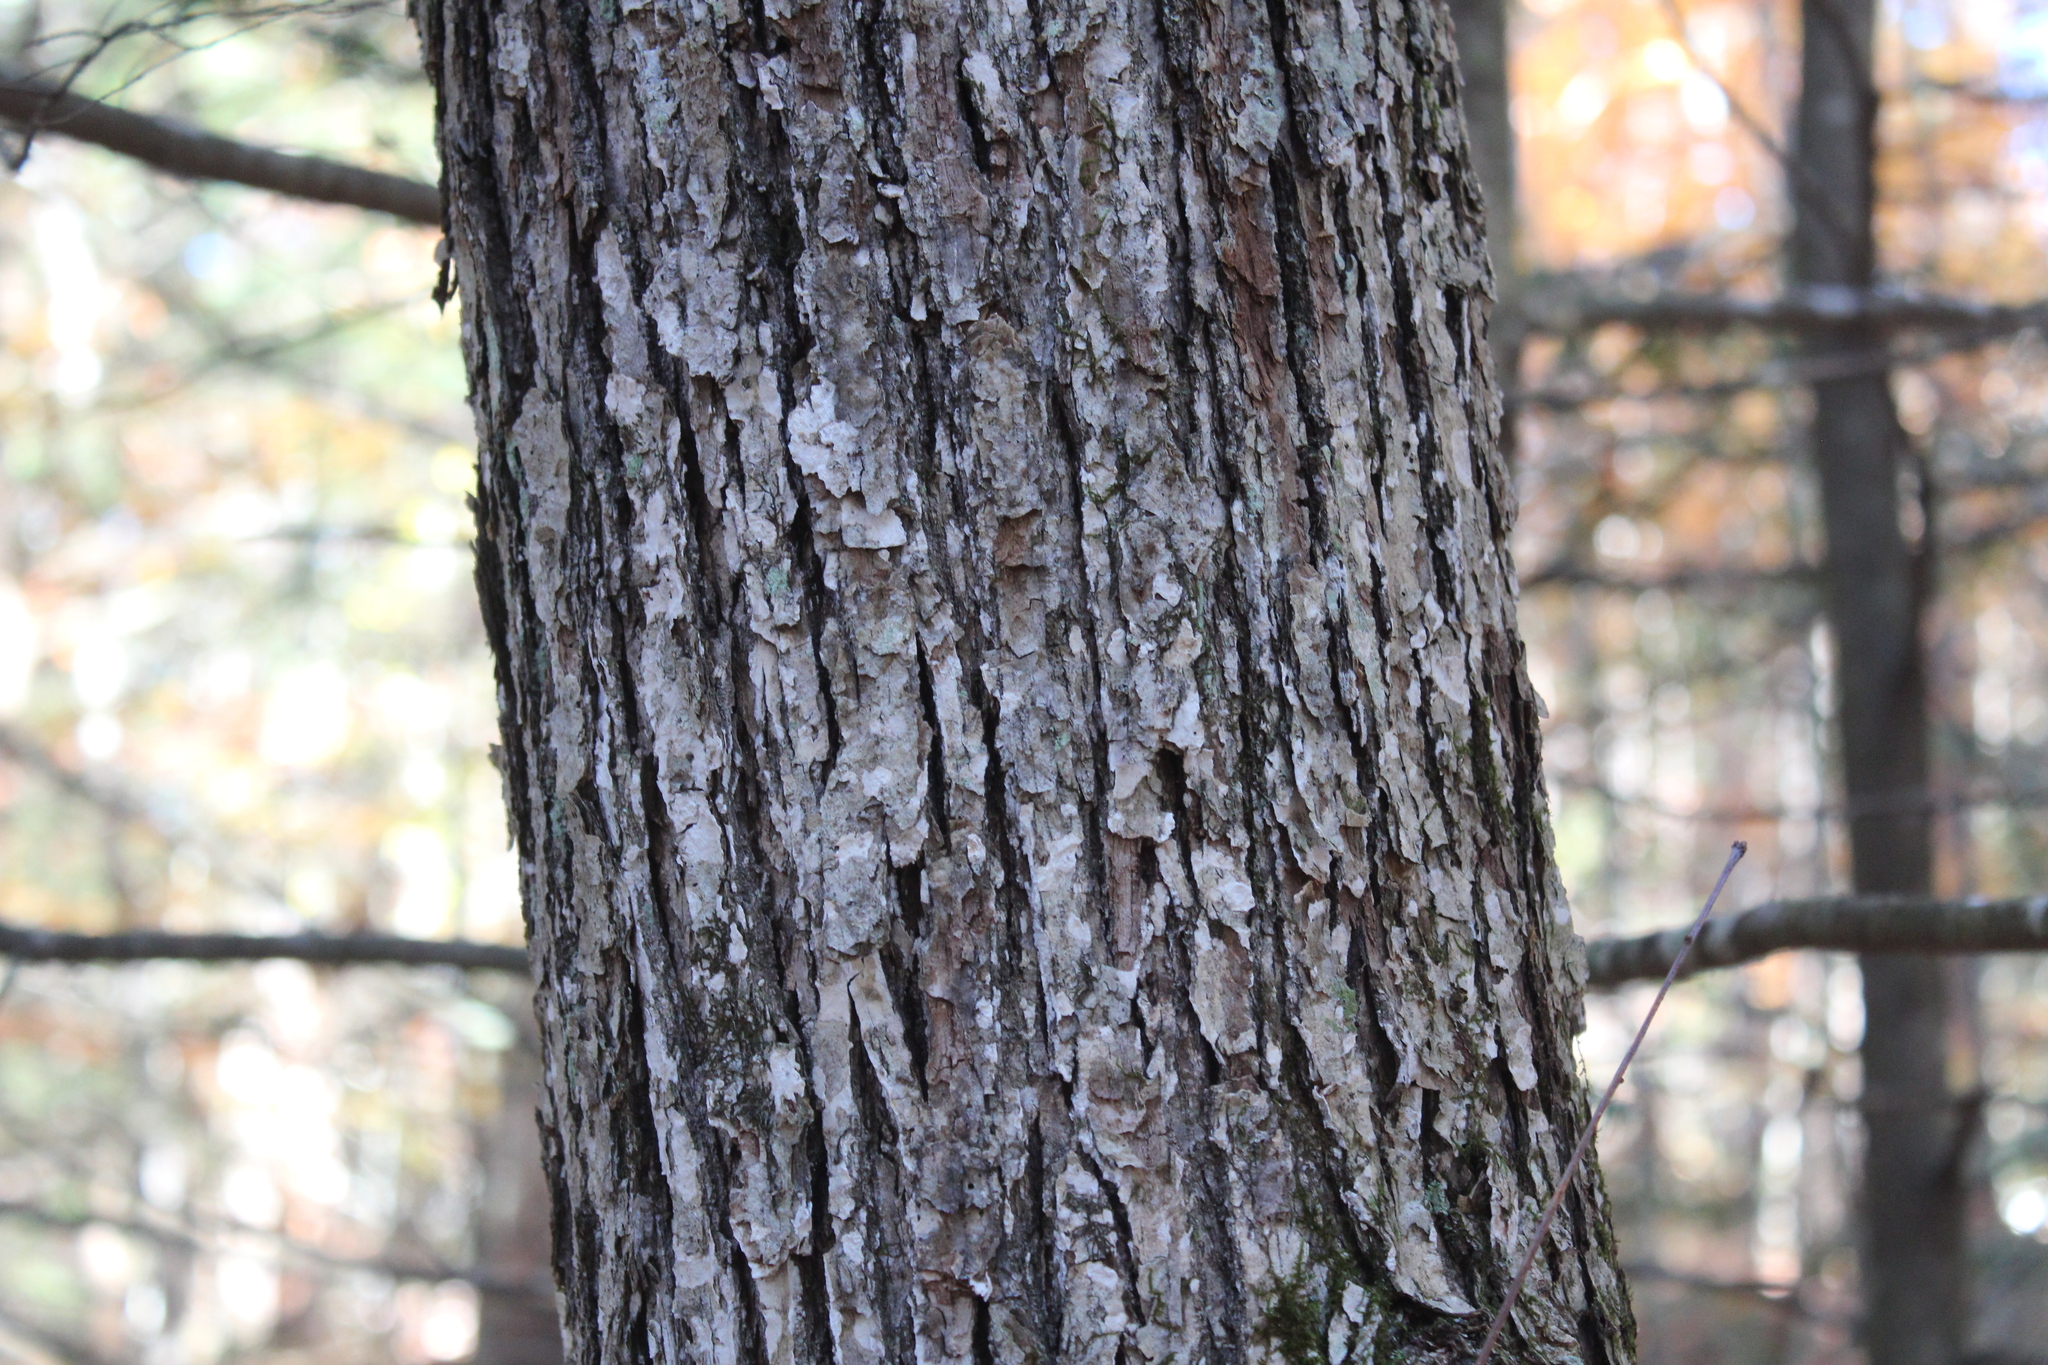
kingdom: Plantae
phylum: Tracheophyta
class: Magnoliopsida
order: Fagales
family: Fagaceae
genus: Quercus
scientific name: Quercus alba
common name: White oak
